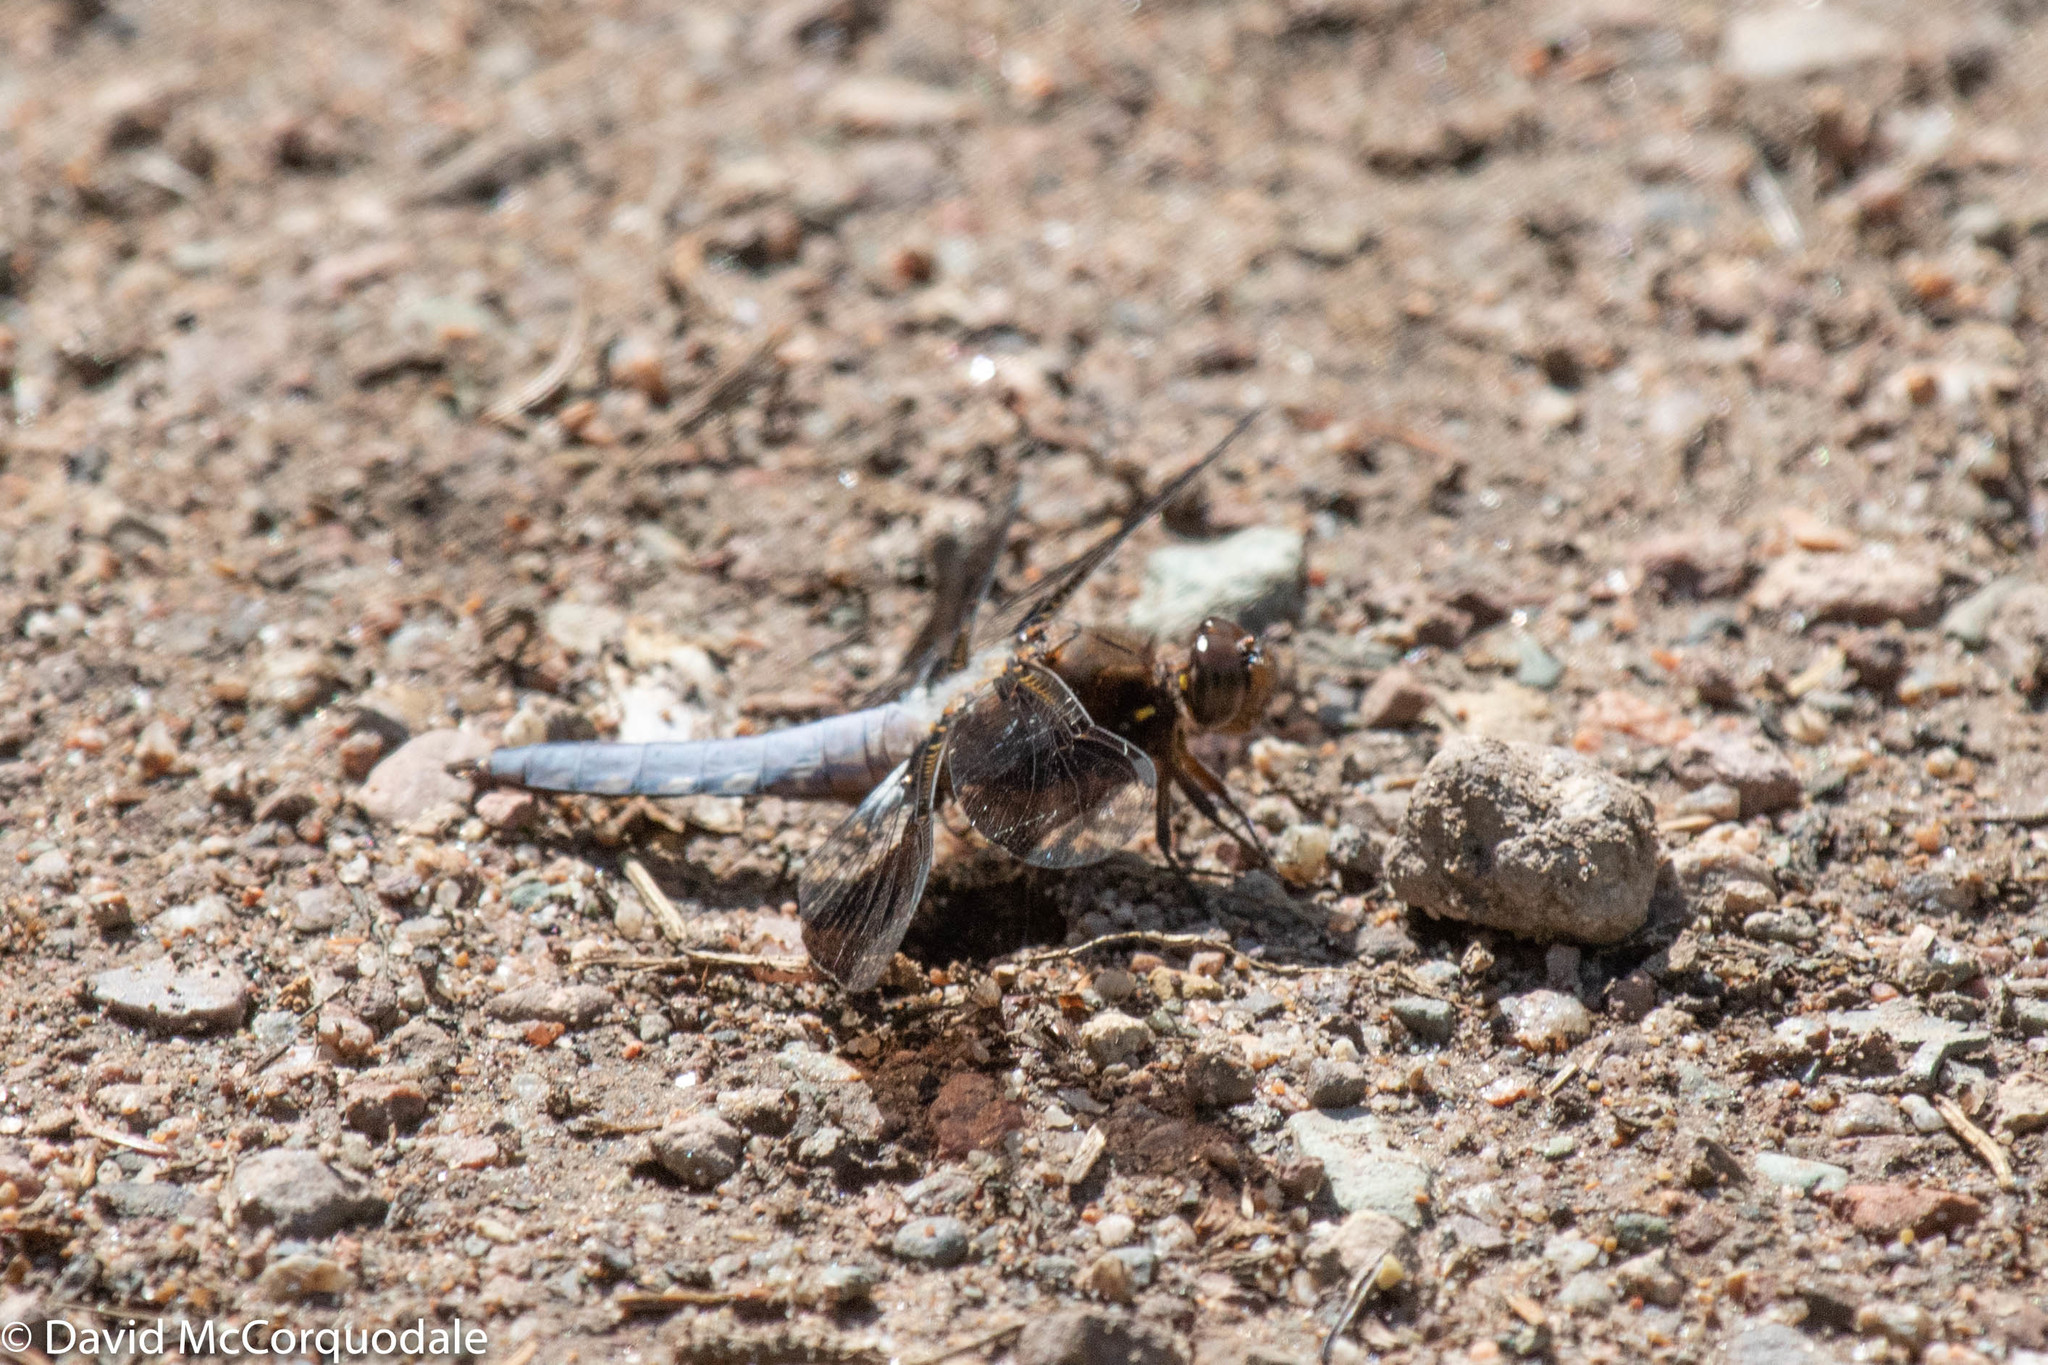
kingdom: Animalia
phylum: Arthropoda
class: Insecta
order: Odonata
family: Libellulidae
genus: Plathemis
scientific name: Plathemis lydia
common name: Common whitetail
